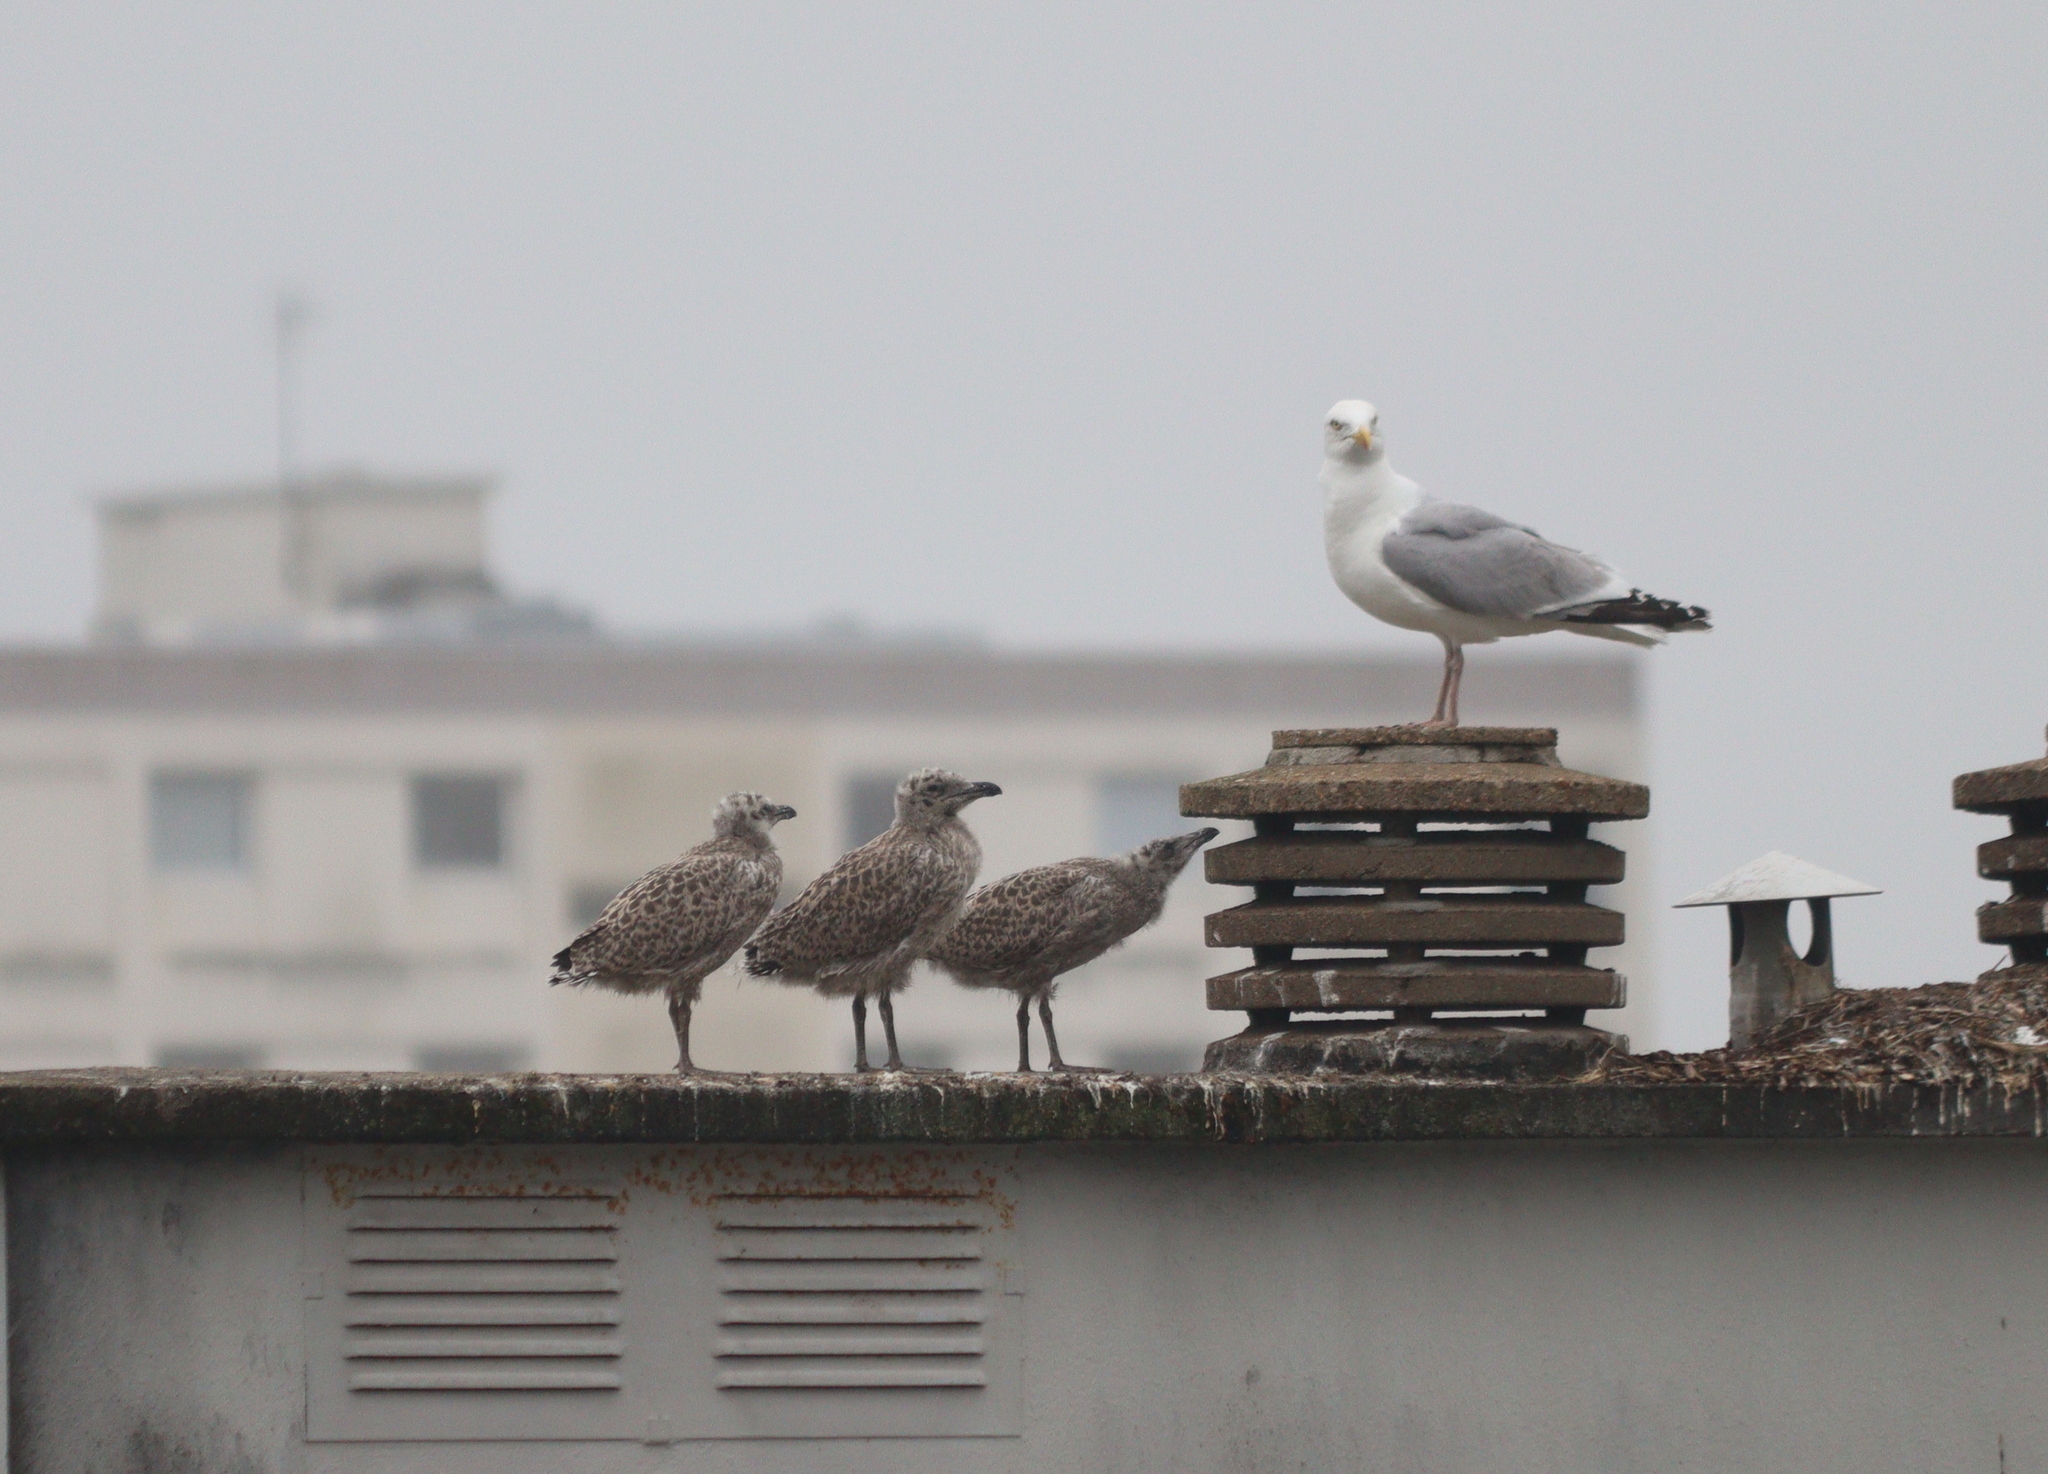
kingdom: Animalia
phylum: Chordata
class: Aves
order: Charadriiformes
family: Laridae
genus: Larus
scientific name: Larus argentatus
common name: Herring gull
